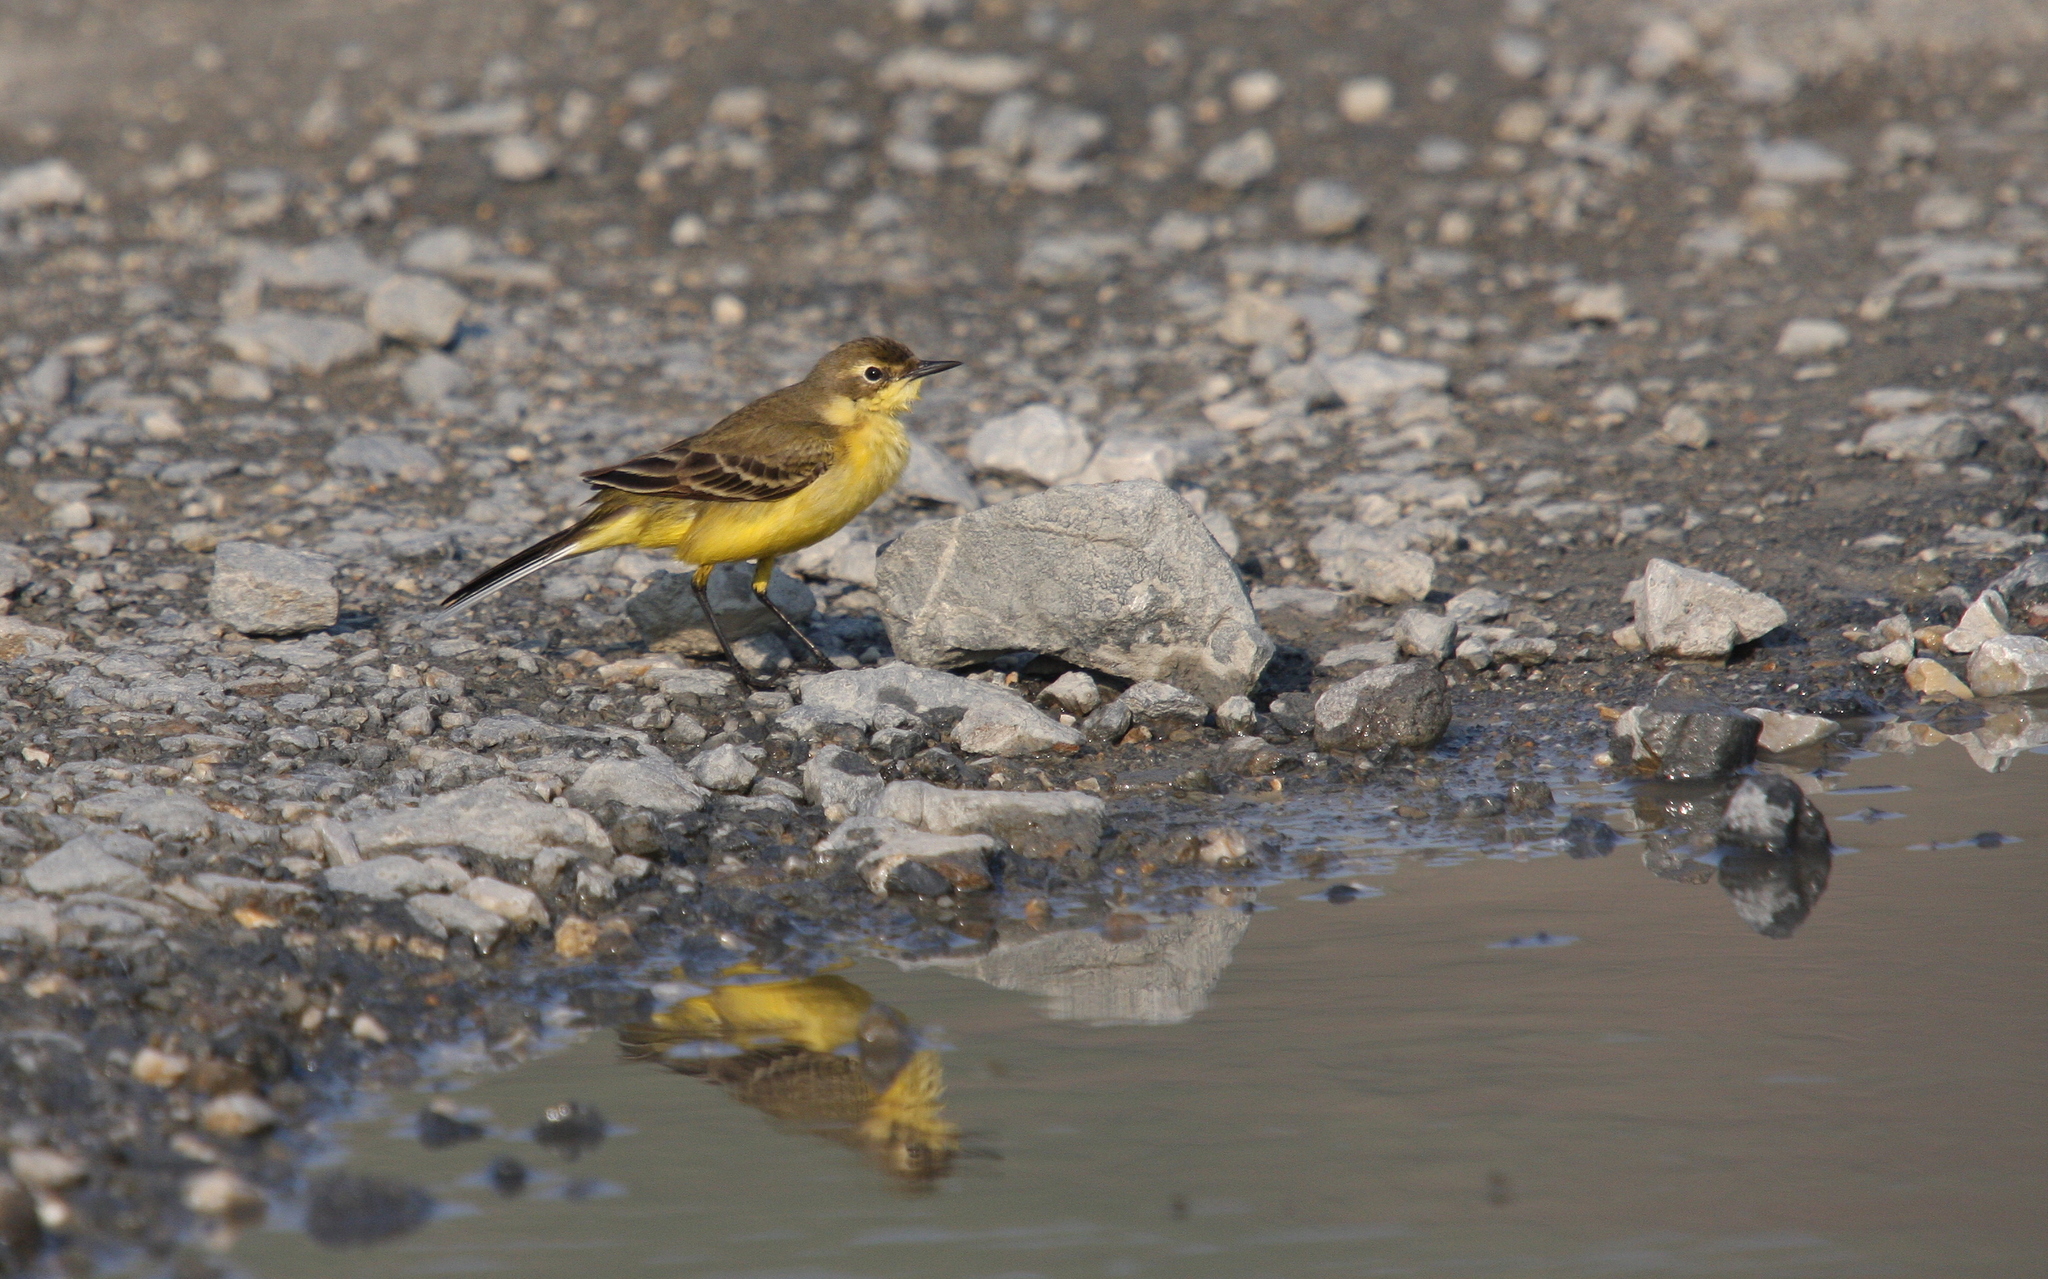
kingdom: Animalia
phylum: Chordata
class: Aves
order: Passeriformes
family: Motacillidae
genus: Motacilla
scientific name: Motacilla flava
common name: Western yellow wagtail
